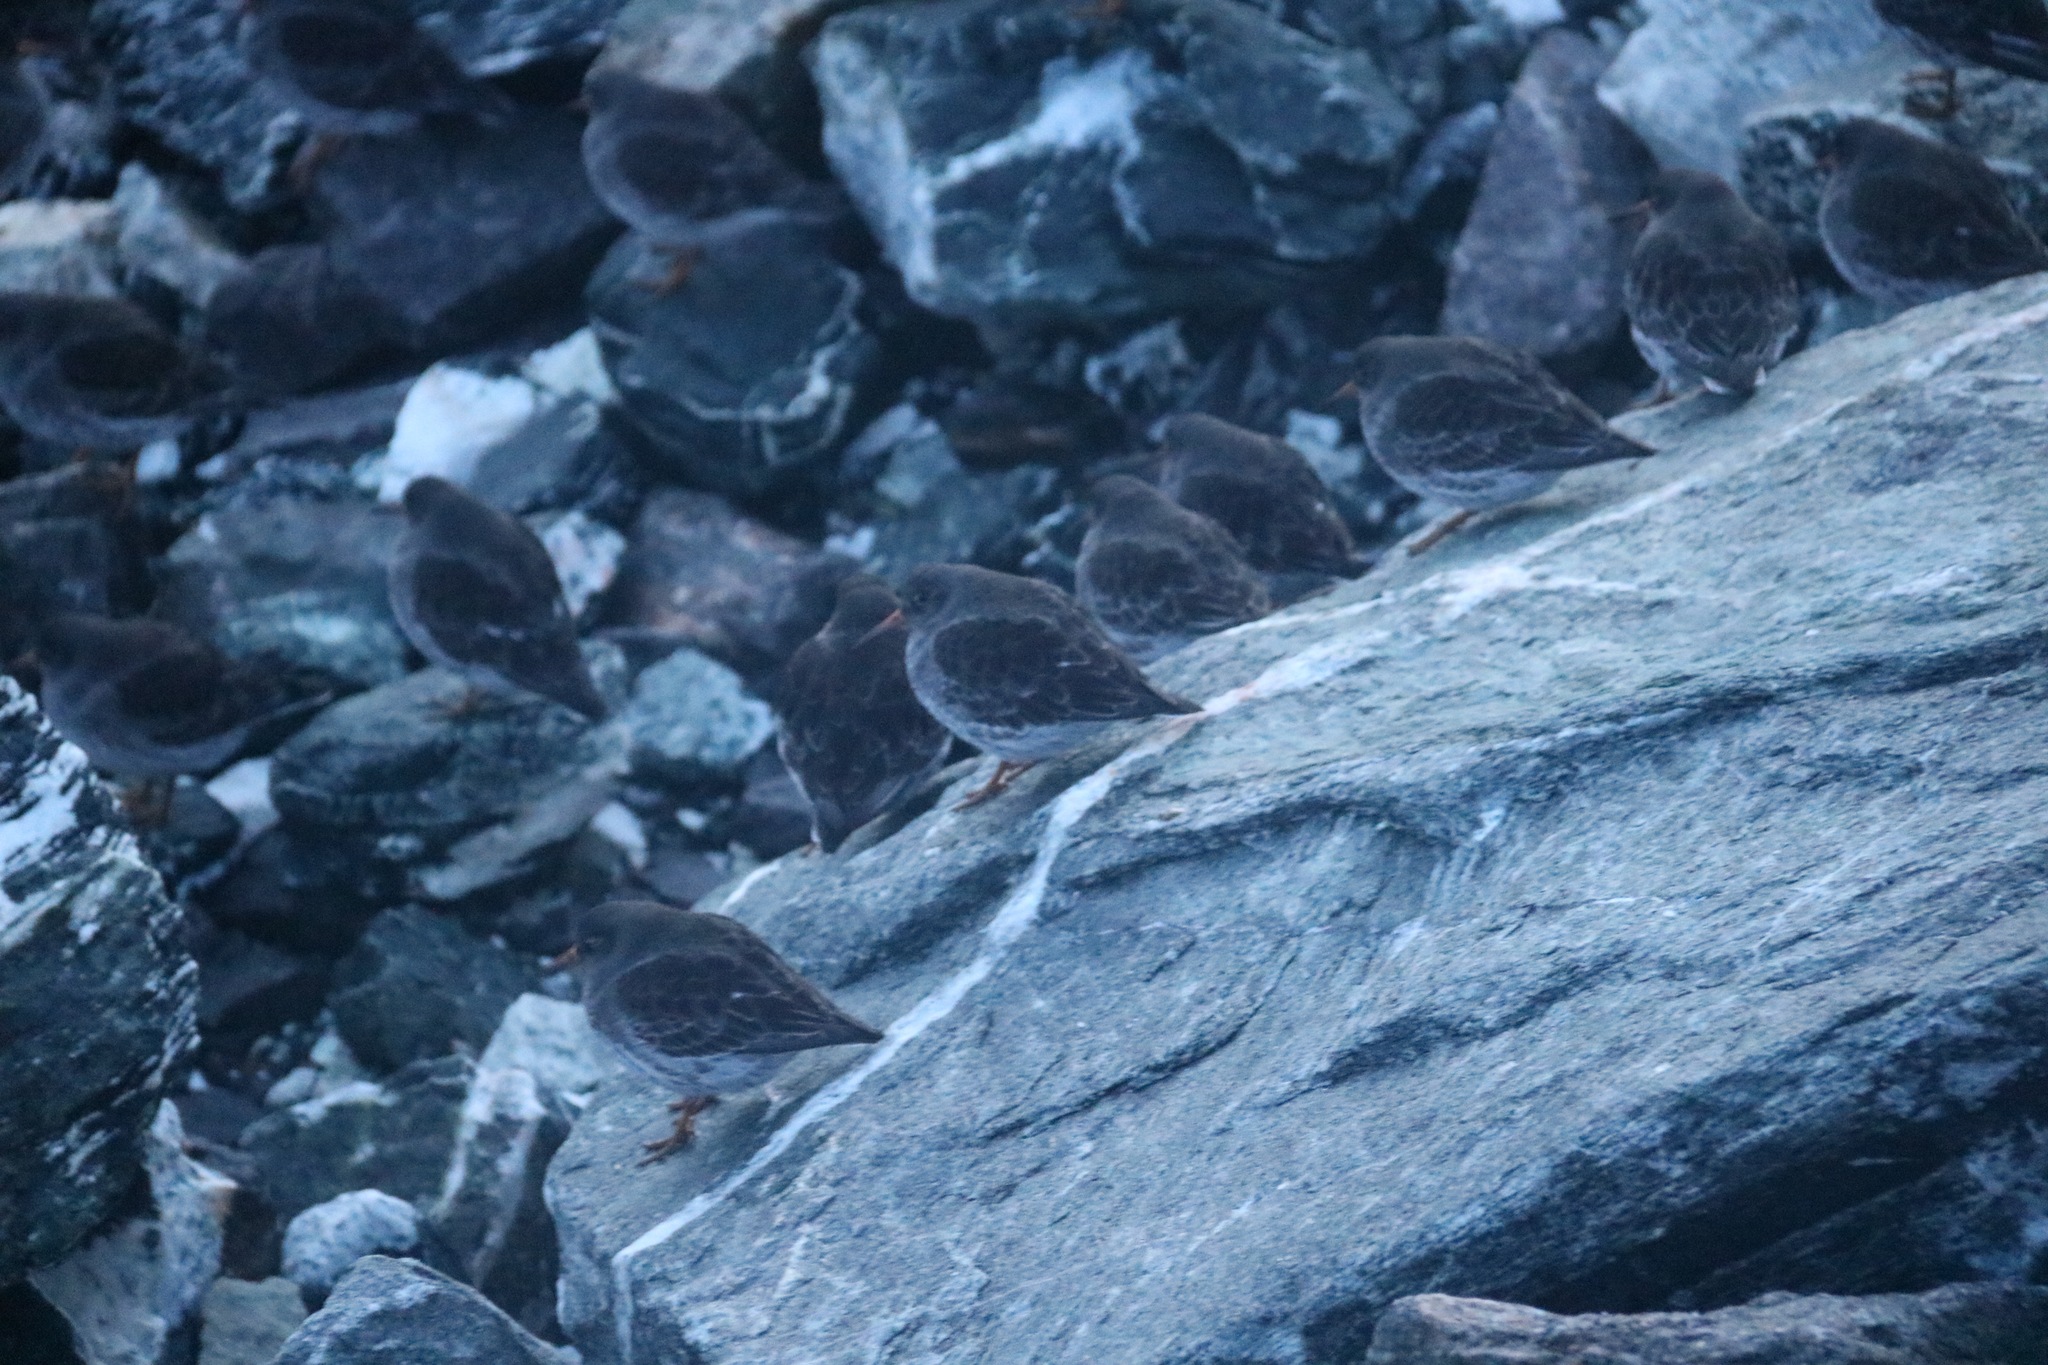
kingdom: Animalia
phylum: Chordata
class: Aves
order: Charadriiformes
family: Scolopacidae
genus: Calidris
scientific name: Calidris maritima
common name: Purple sandpiper
